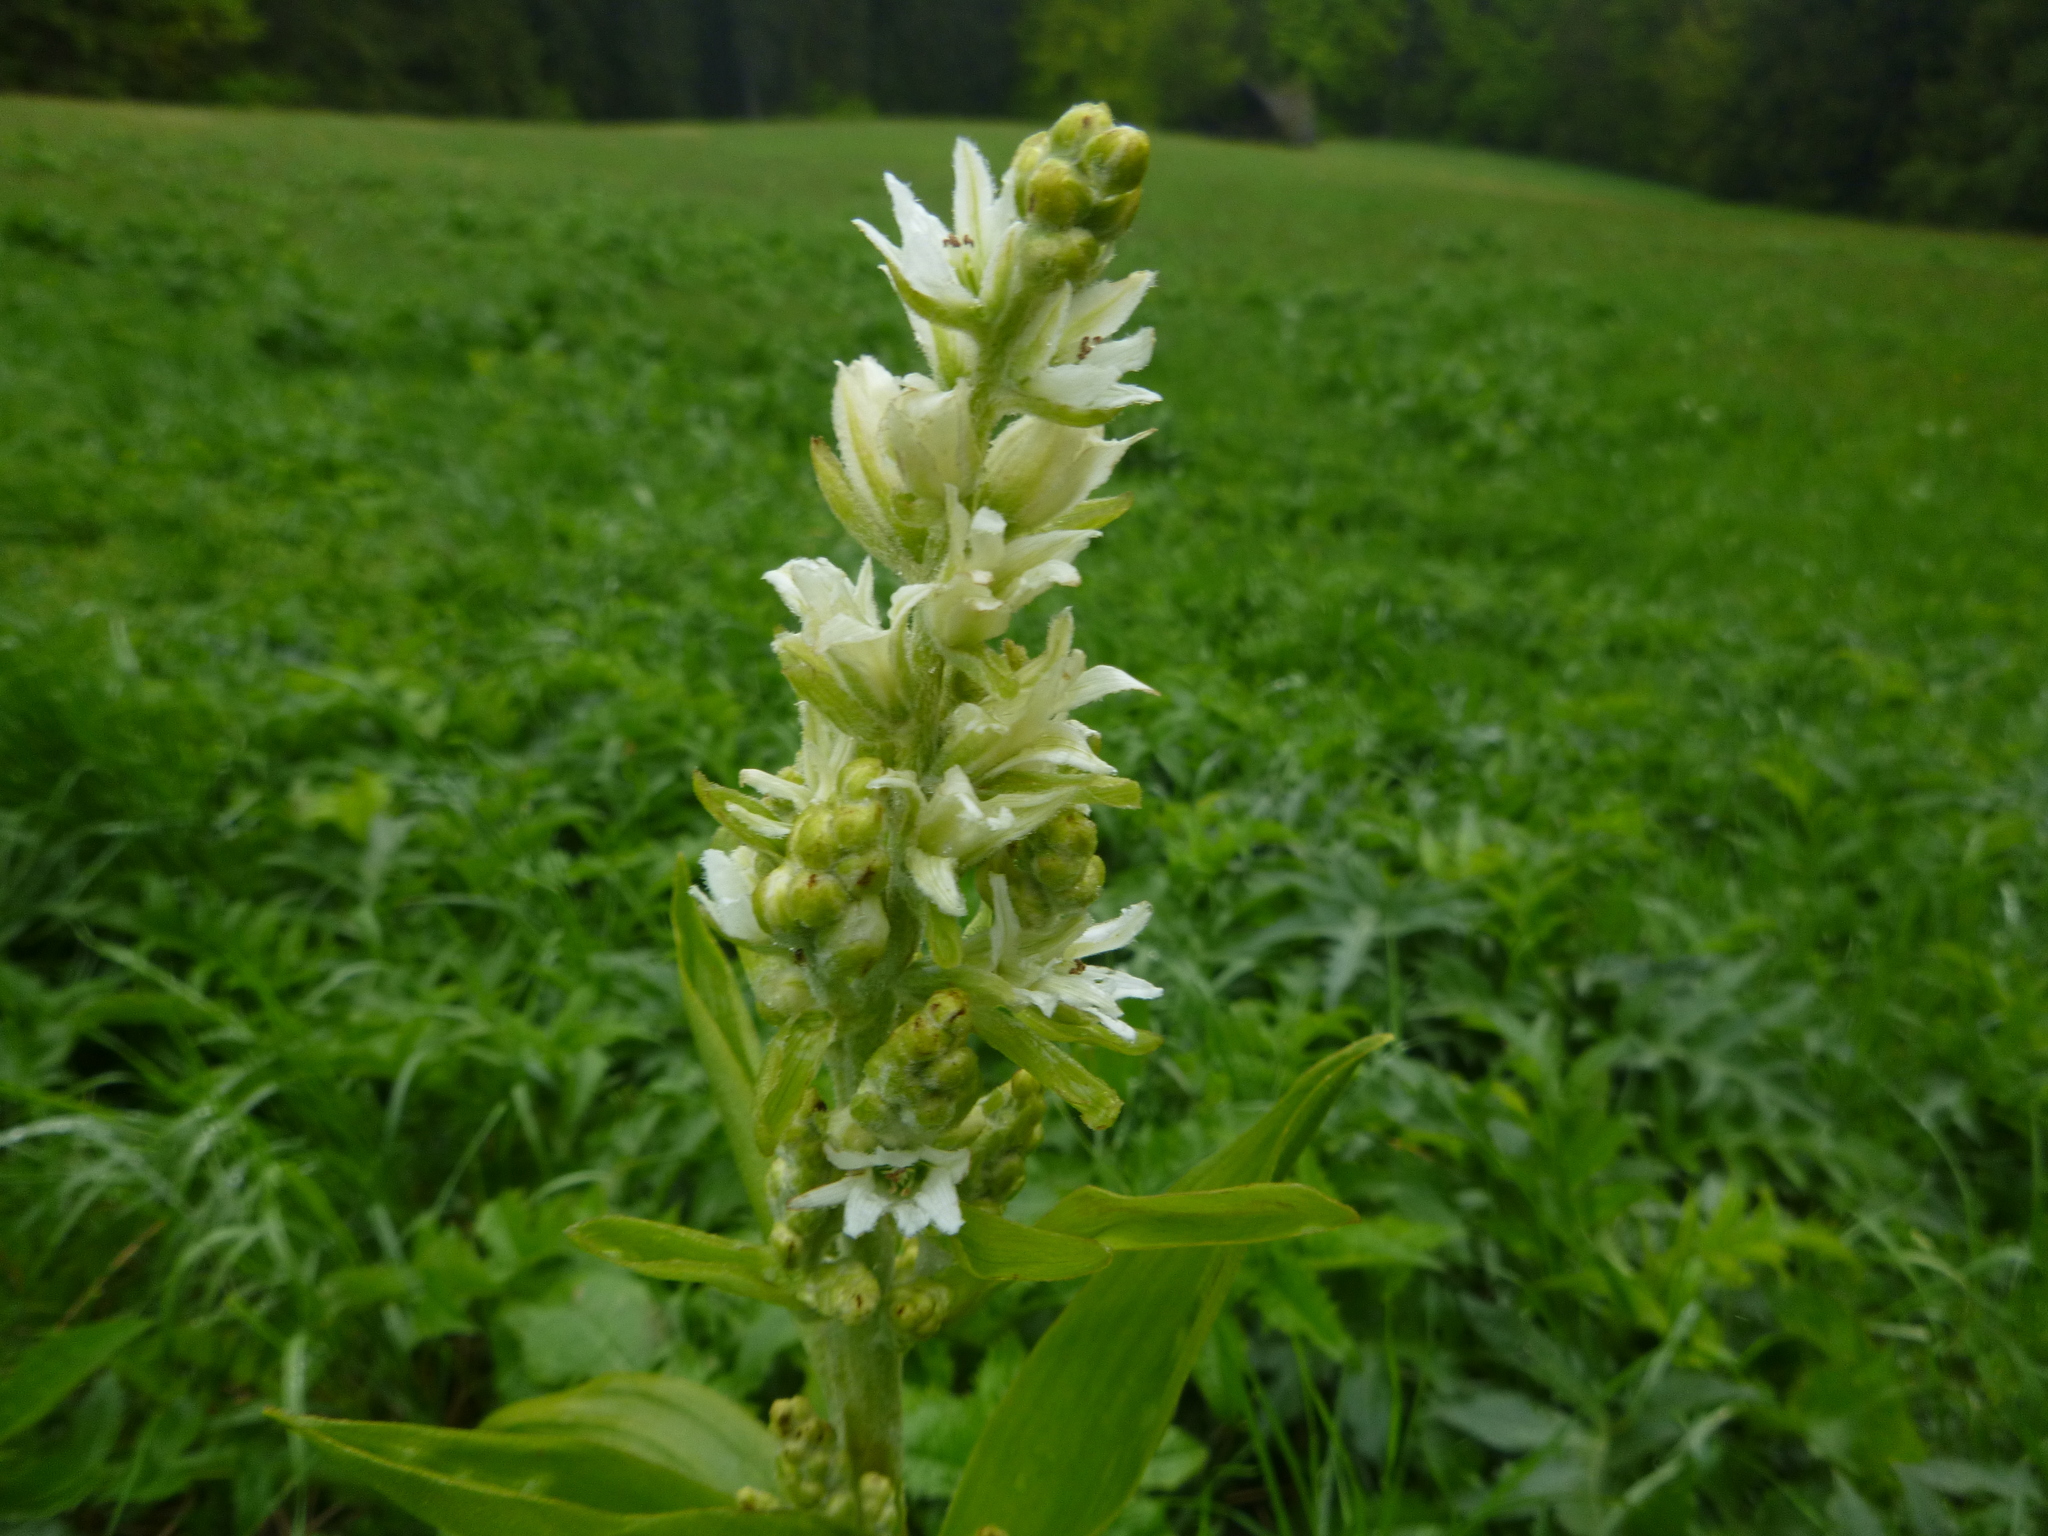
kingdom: Plantae
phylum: Tracheophyta
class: Liliopsida
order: Liliales
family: Melanthiaceae
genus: Veratrum
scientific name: Veratrum album
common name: White veratrum
